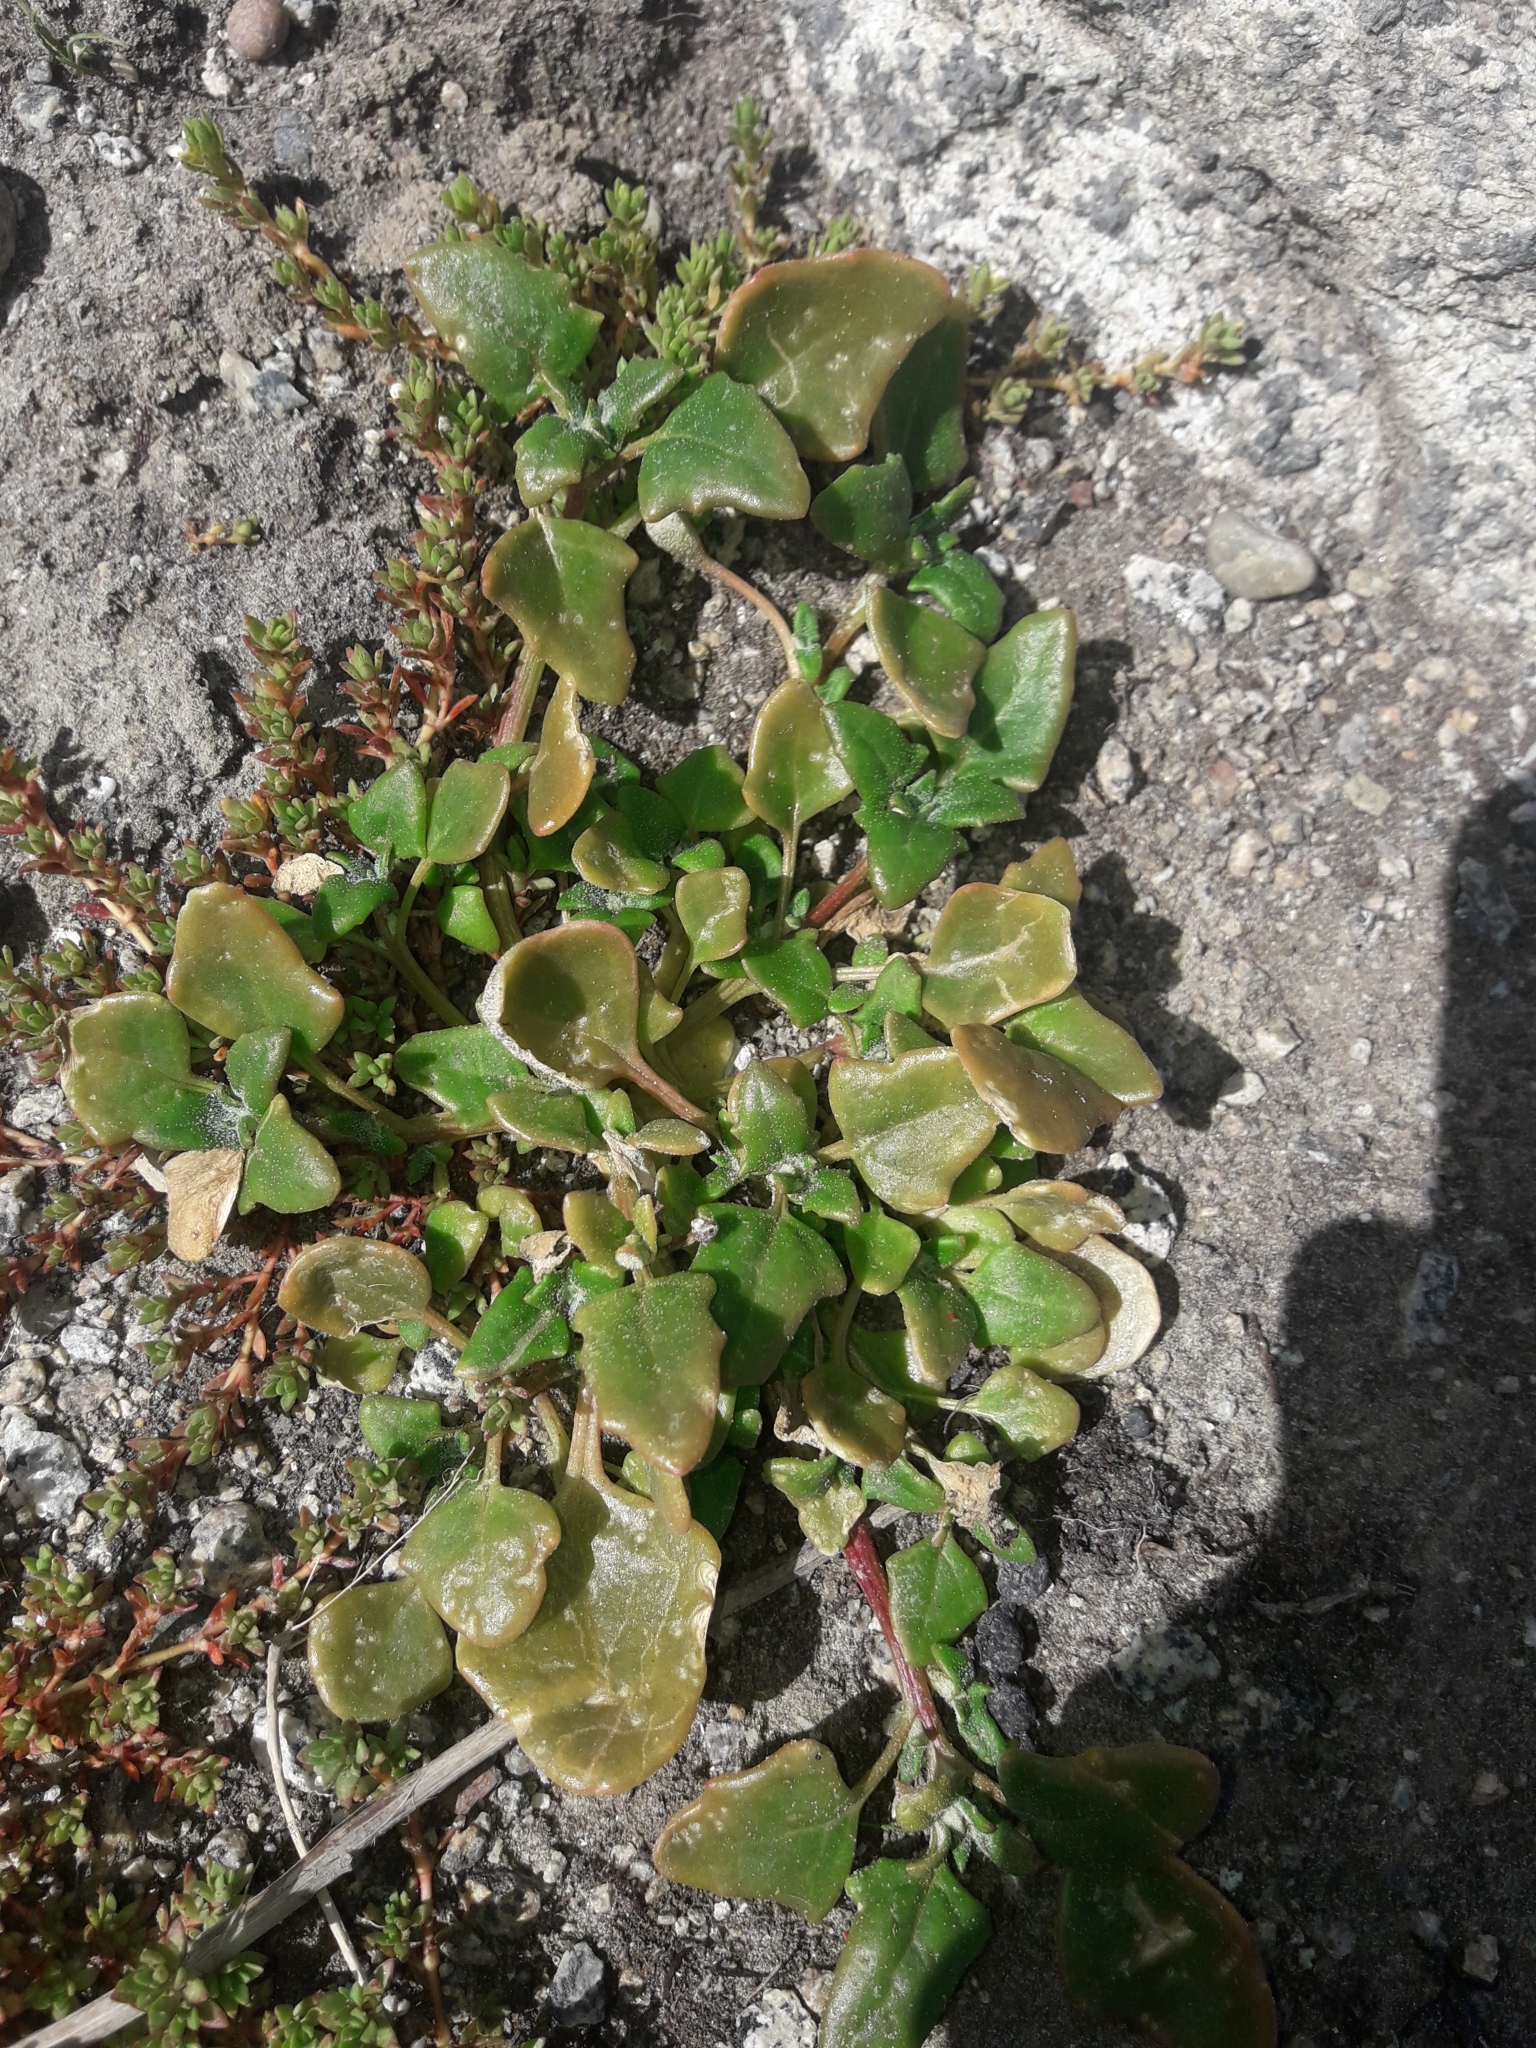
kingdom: Plantae
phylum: Tracheophyta
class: Magnoliopsida
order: Caryophyllales
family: Amaranthaceae
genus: Oxybasis
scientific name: Oxybasis ambigua
